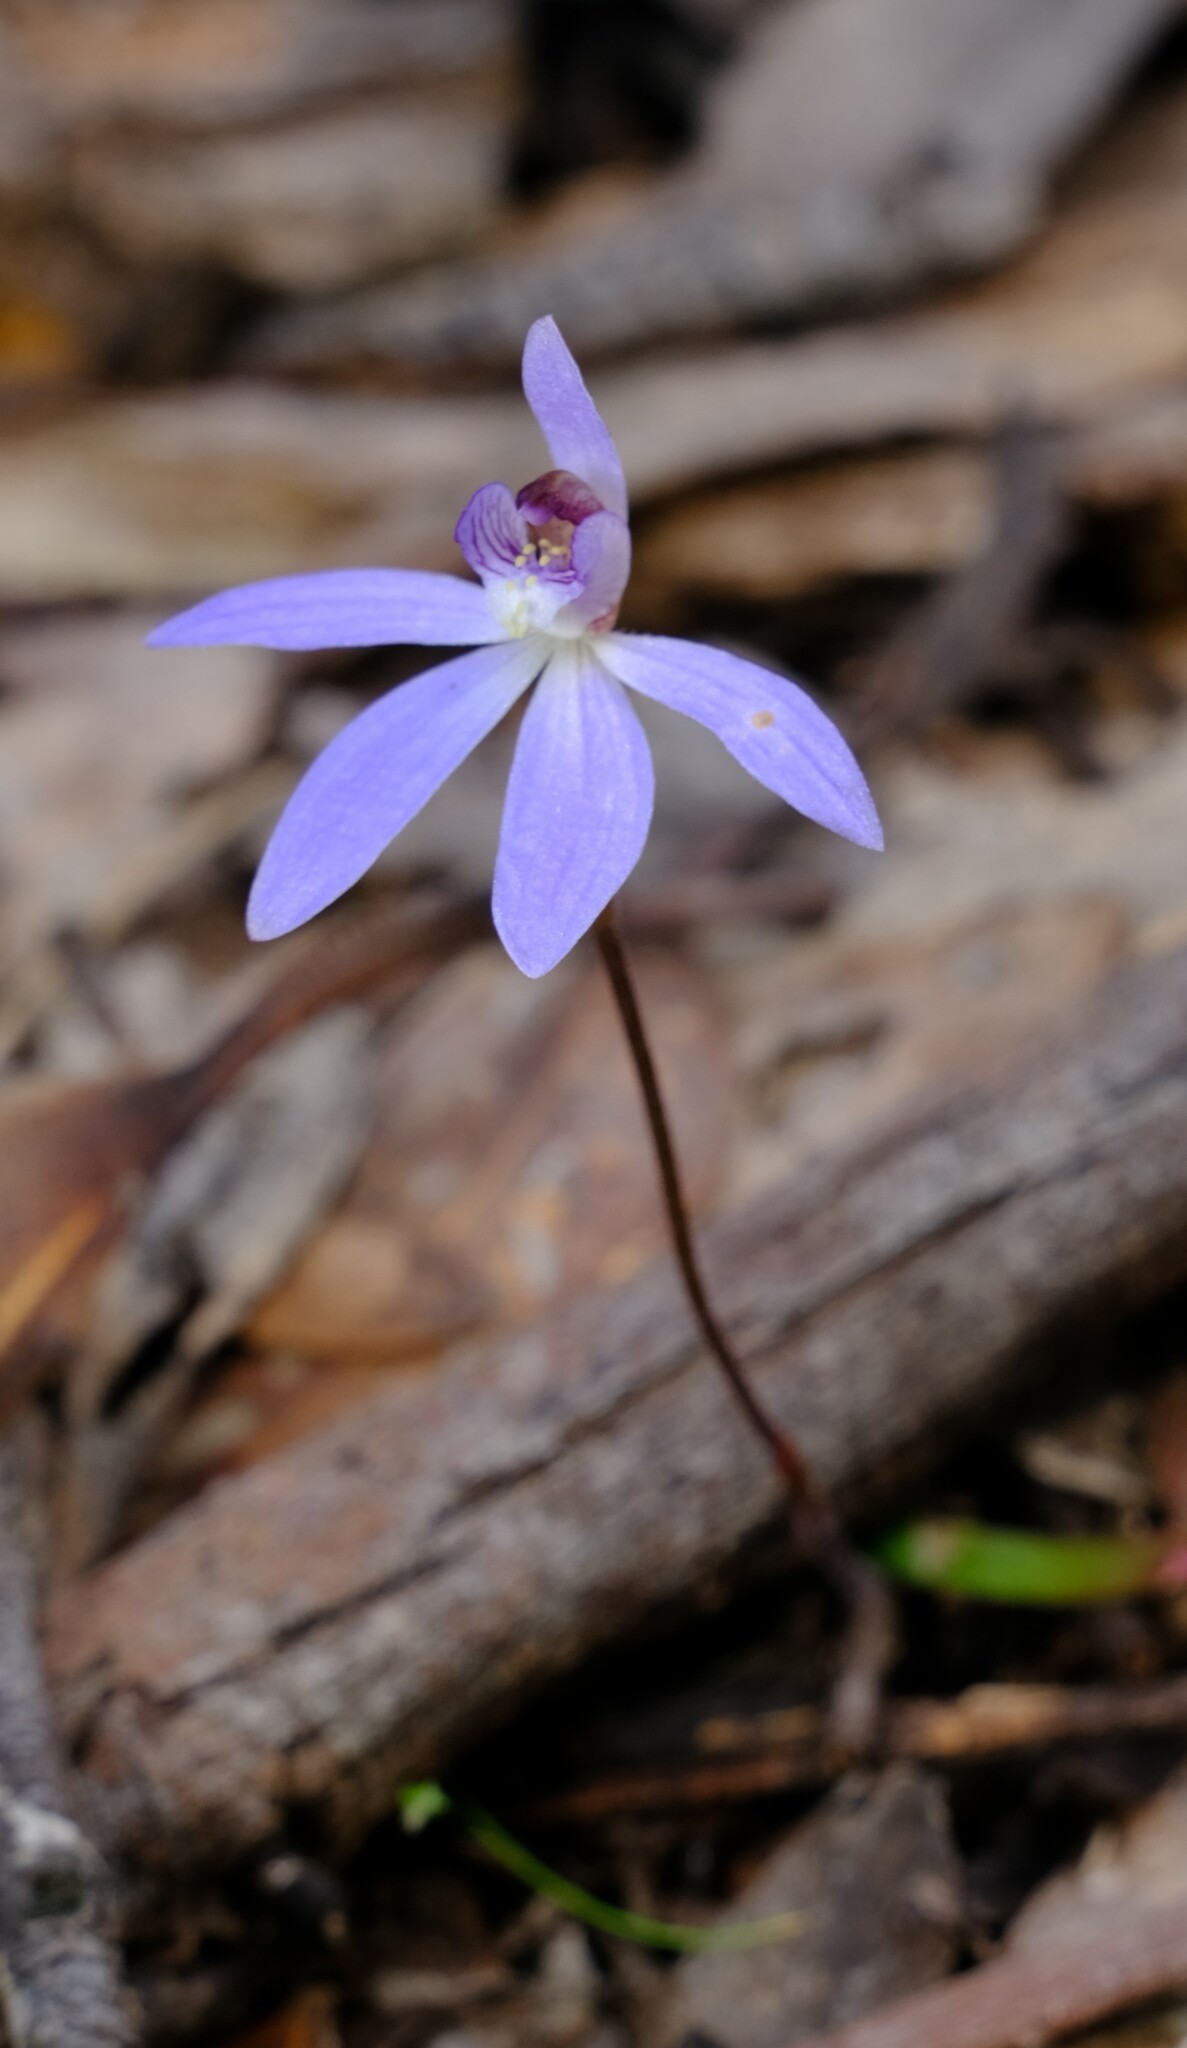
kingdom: Plantae
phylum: Tracheophyta
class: Liliopsida
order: Asparagales
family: Orchidaceae
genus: Caladenia
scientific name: Caladenia caerulea
